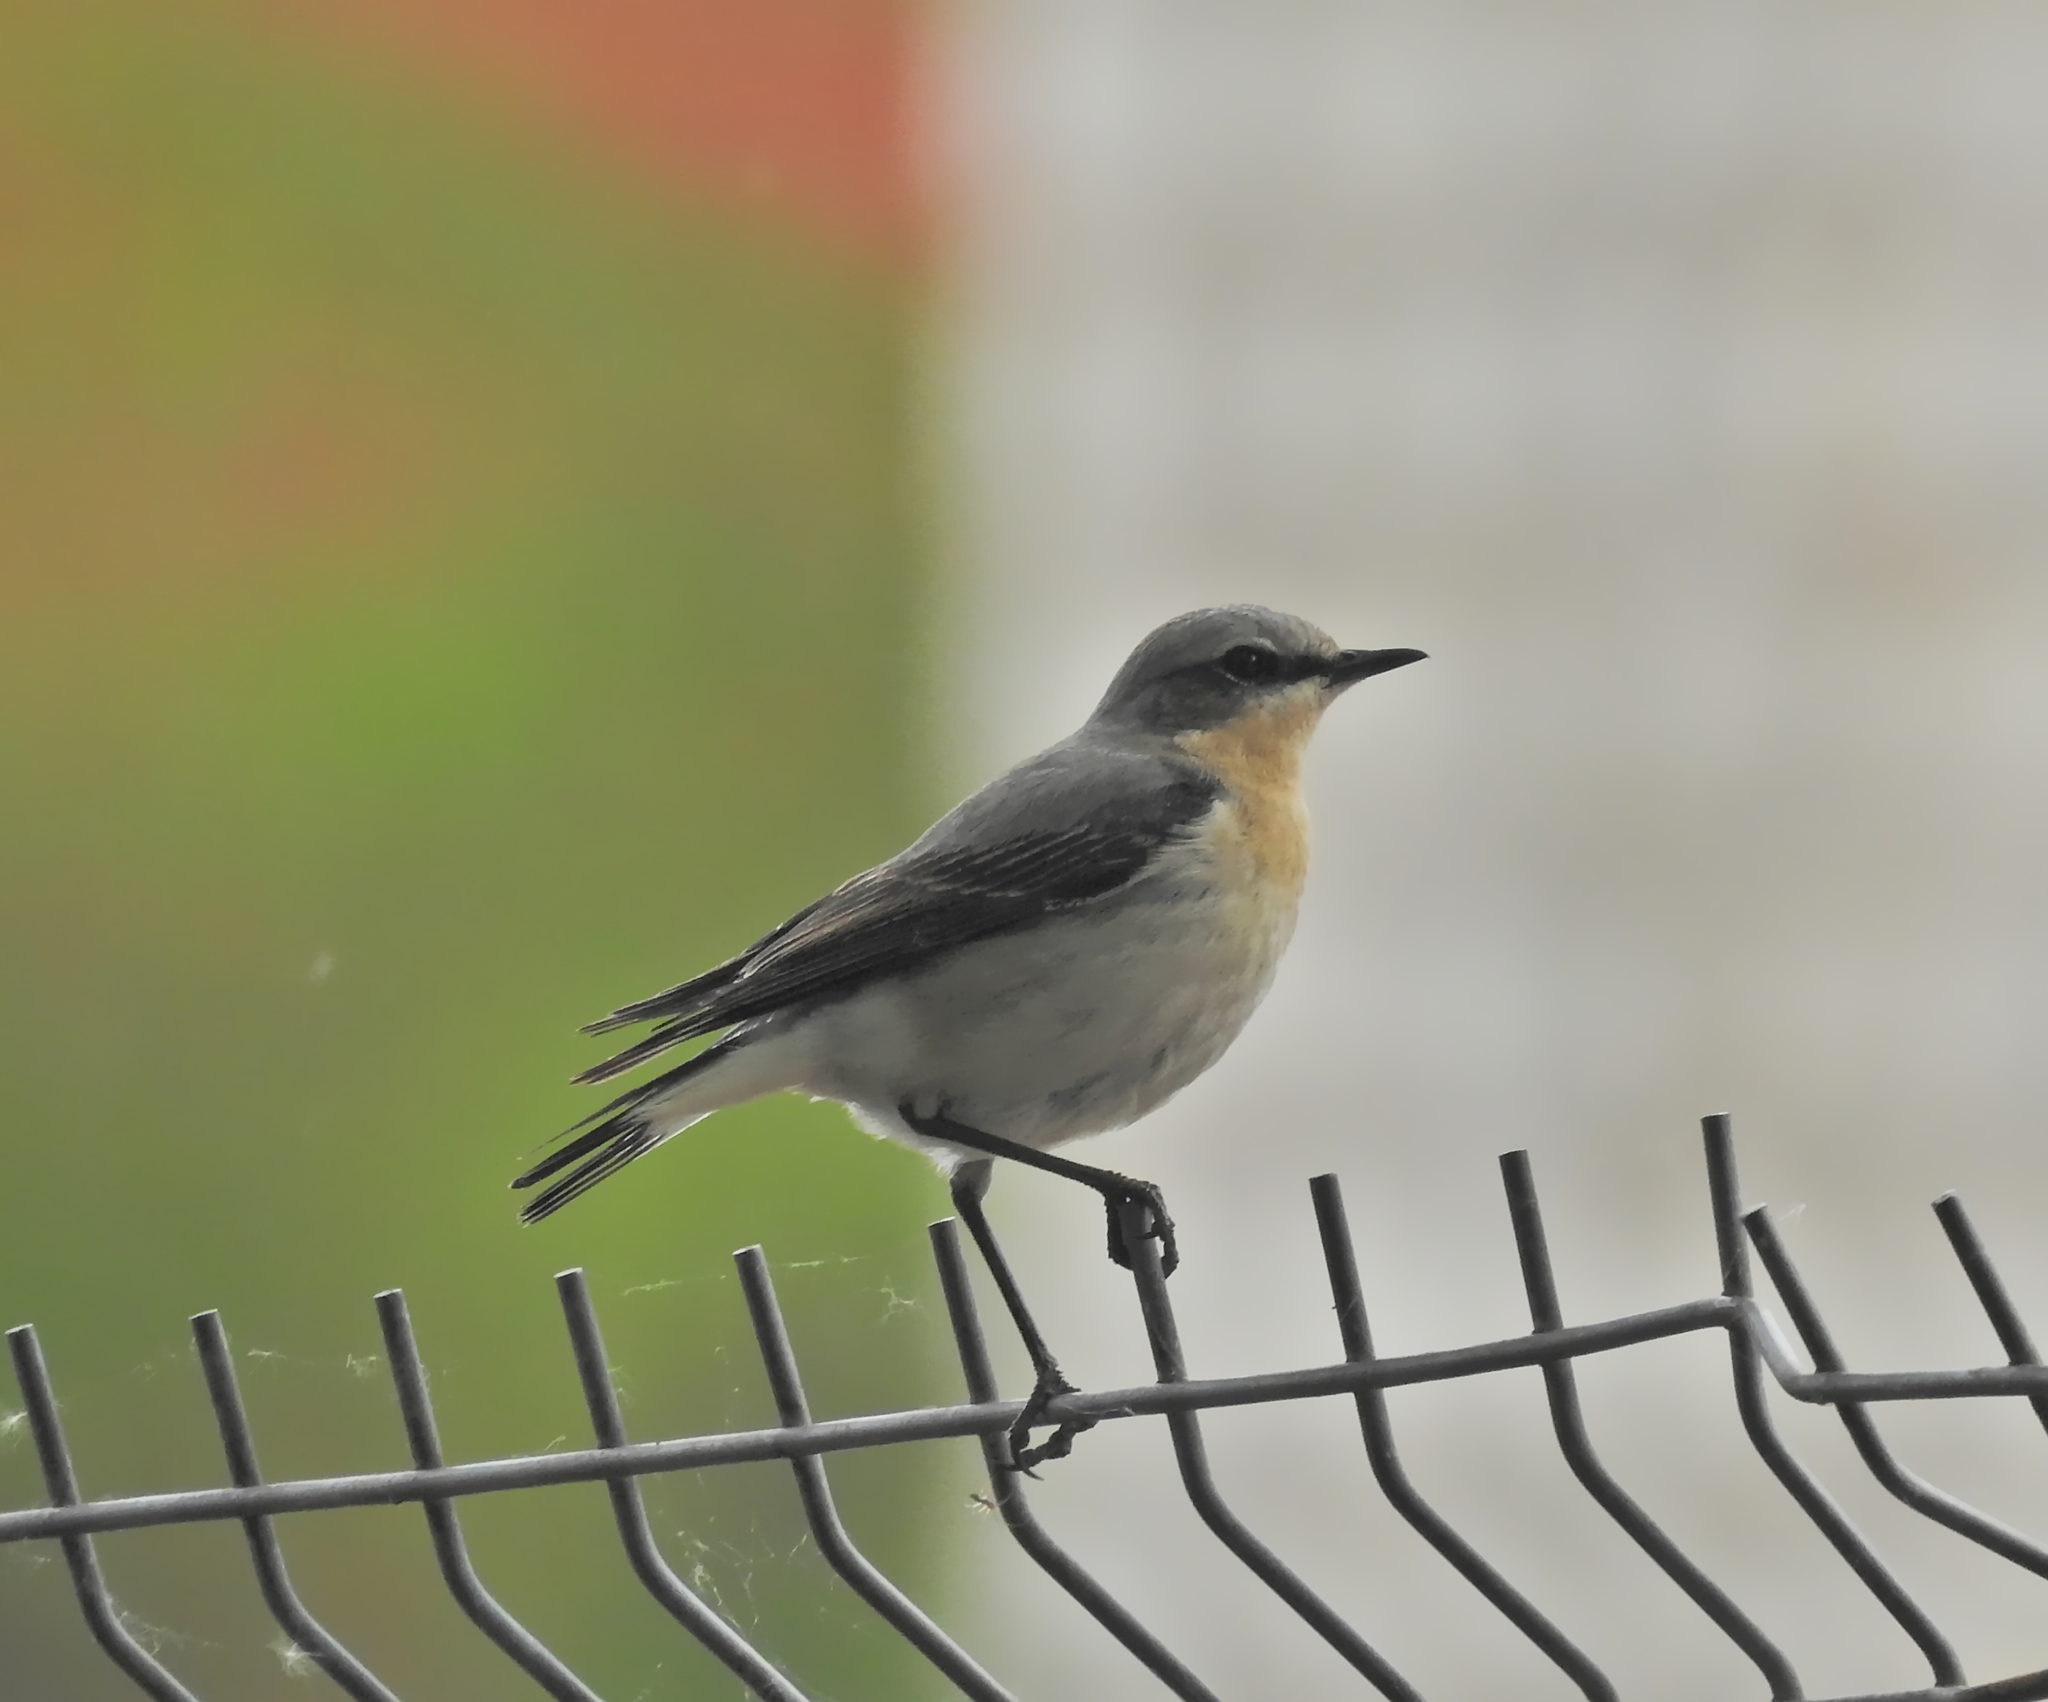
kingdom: Animalia
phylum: Chordata
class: Aves
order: Passeriformes
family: Muscicapidae
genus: Oenanthe
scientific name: Oenanthe oenanthe
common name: Northern wheatear
